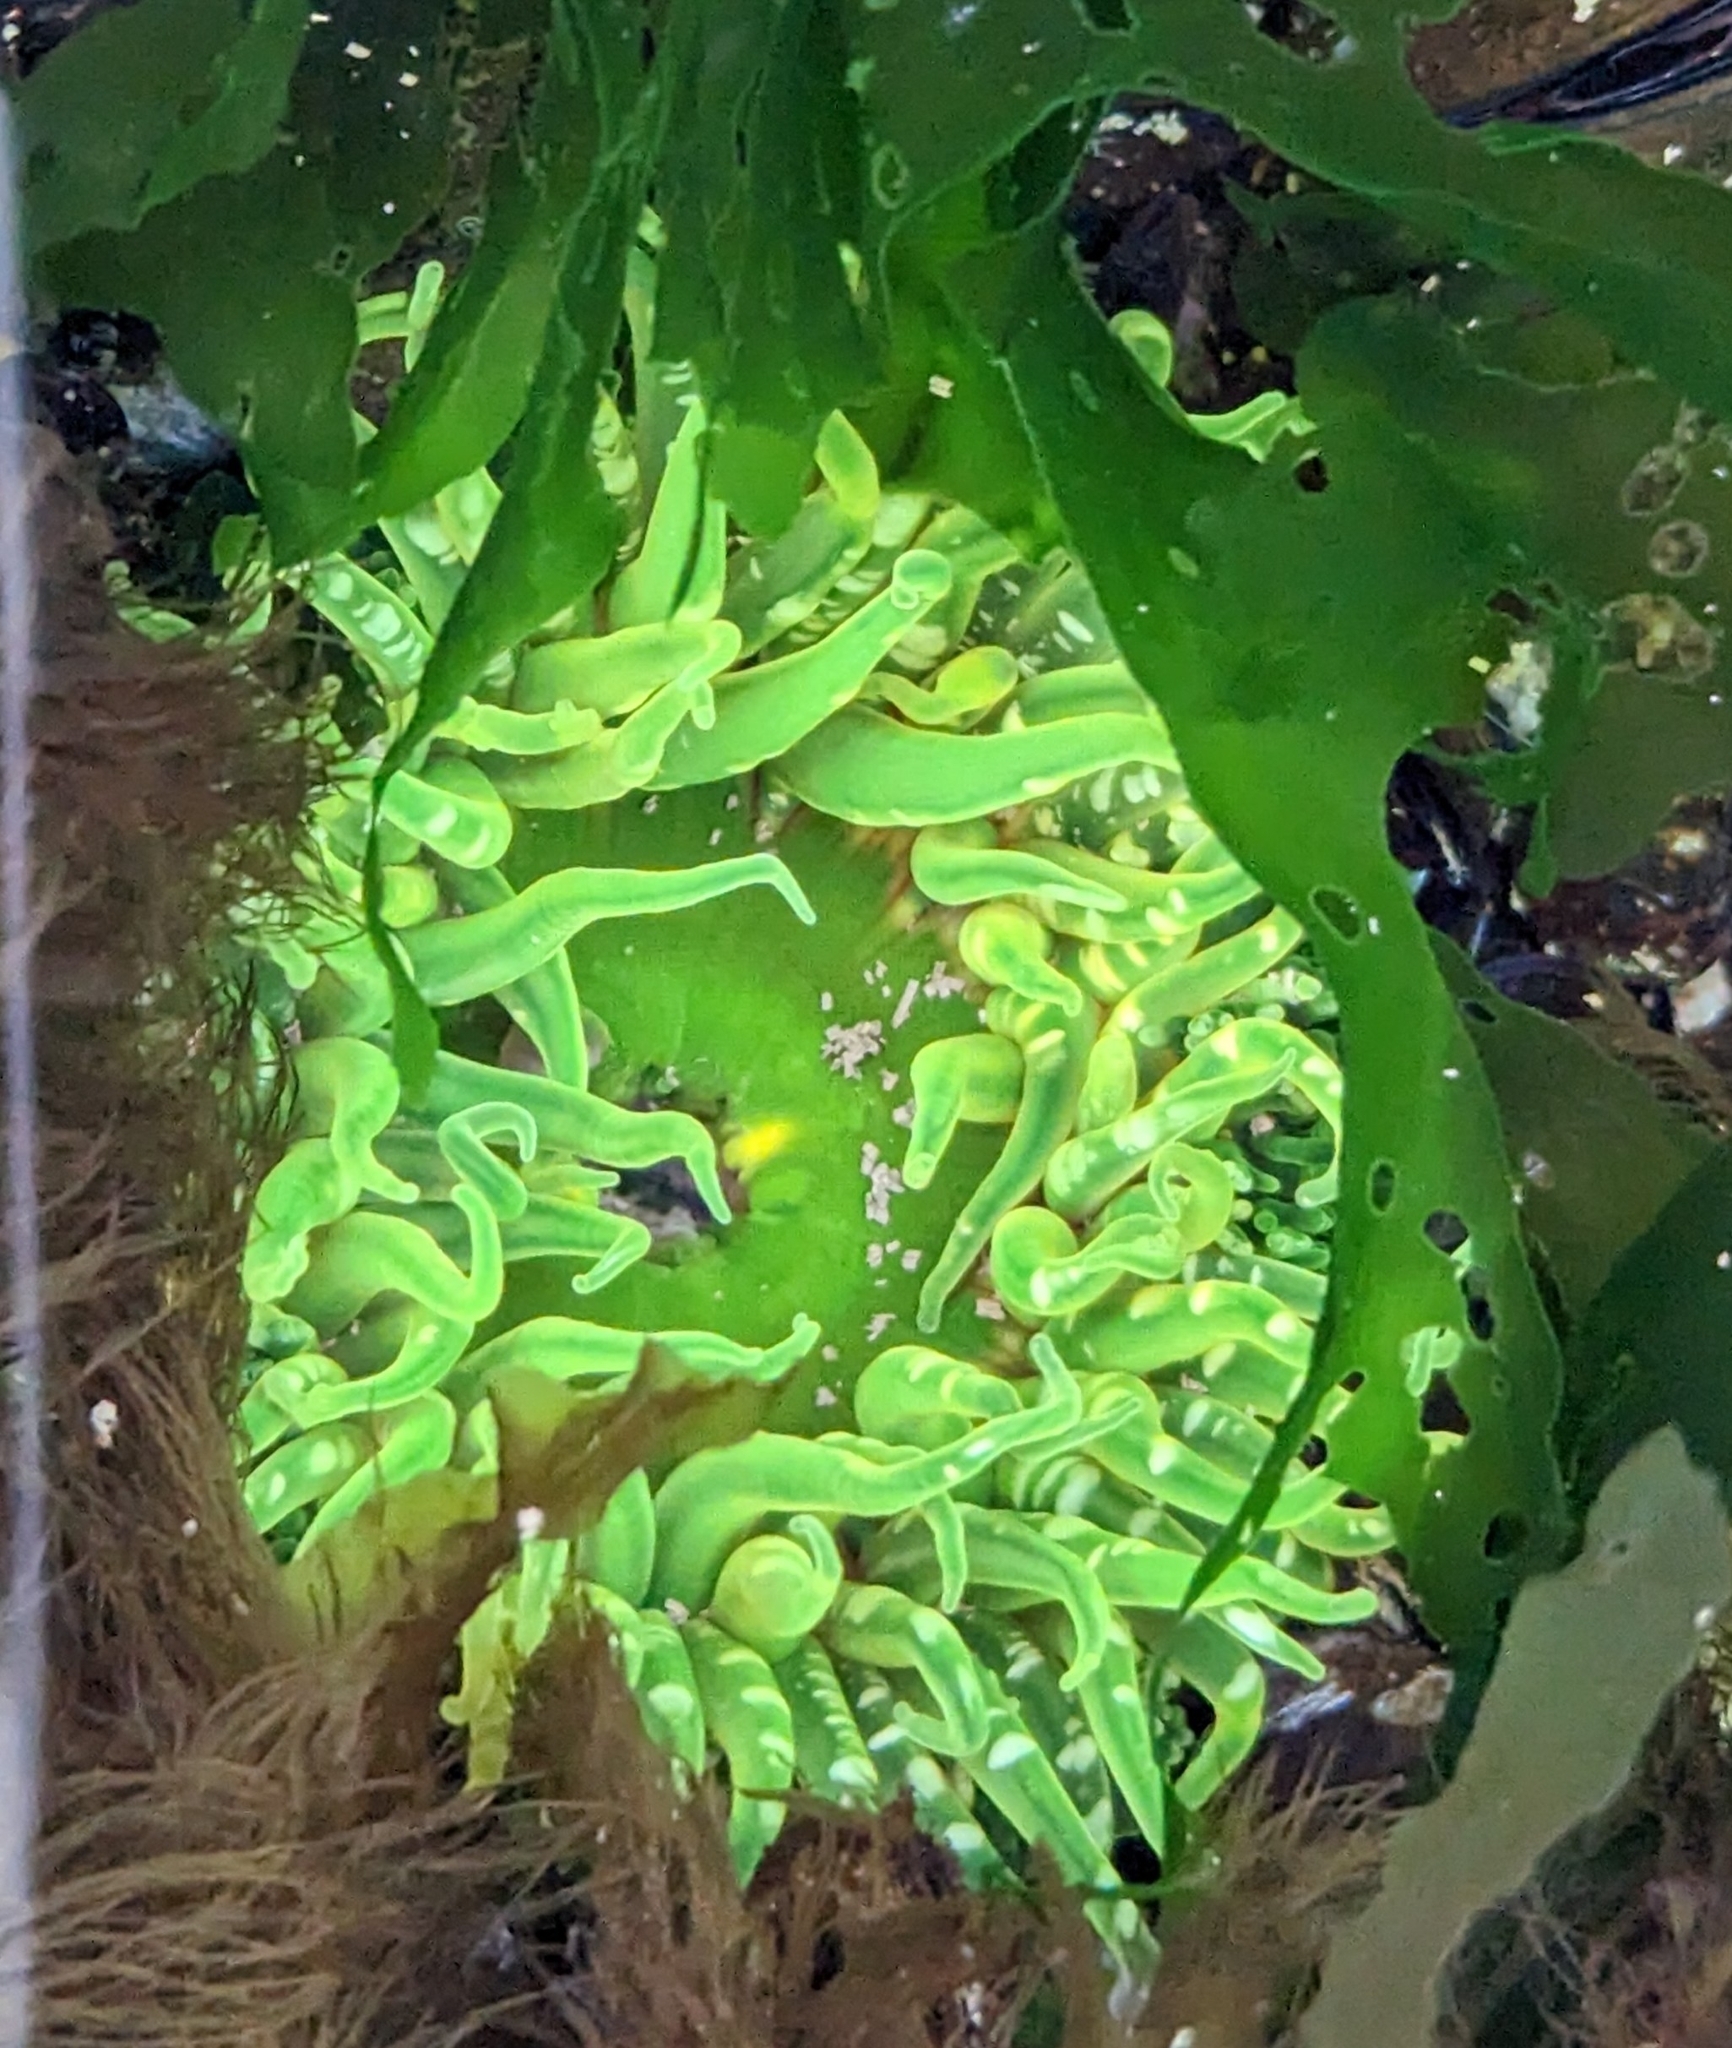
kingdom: Animalia
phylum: Cnidaria
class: Anthozoa
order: Actiniaria
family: Actiniidae
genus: Anthopleura
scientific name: Anthopleura artemisia
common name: Buried sea anemone
